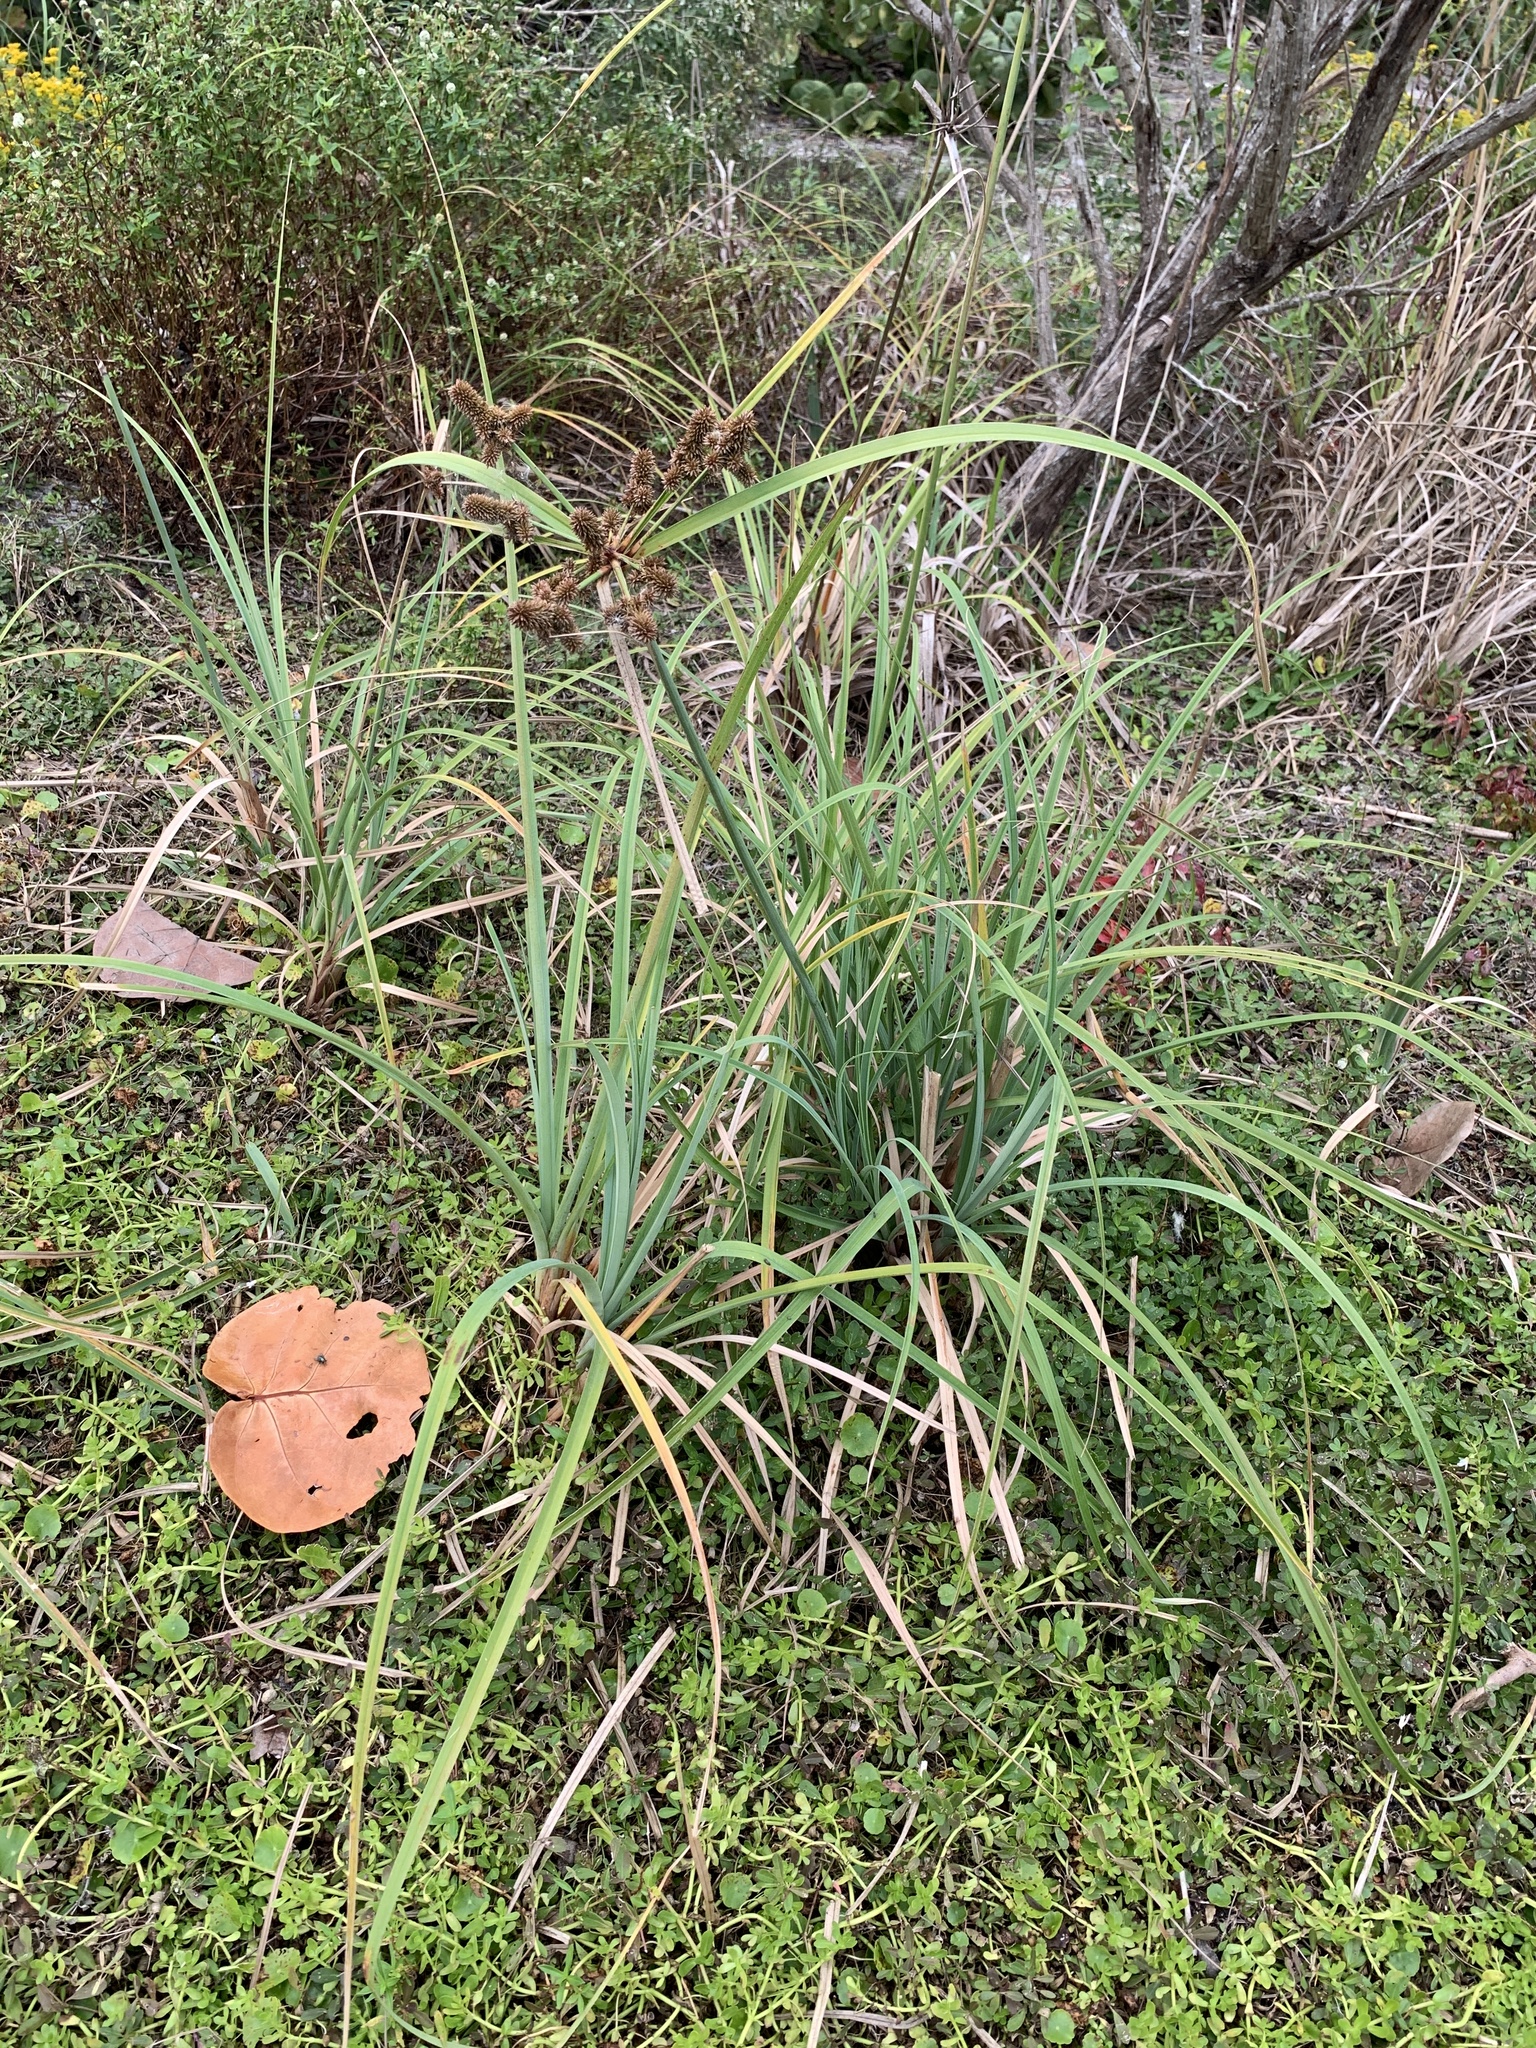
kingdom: Plantae
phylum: Tracheophyta
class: Liliopsida
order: Poales
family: Cyperaceae
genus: Cyperus
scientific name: Cyperus ligularis
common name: Swamp flat sedge
